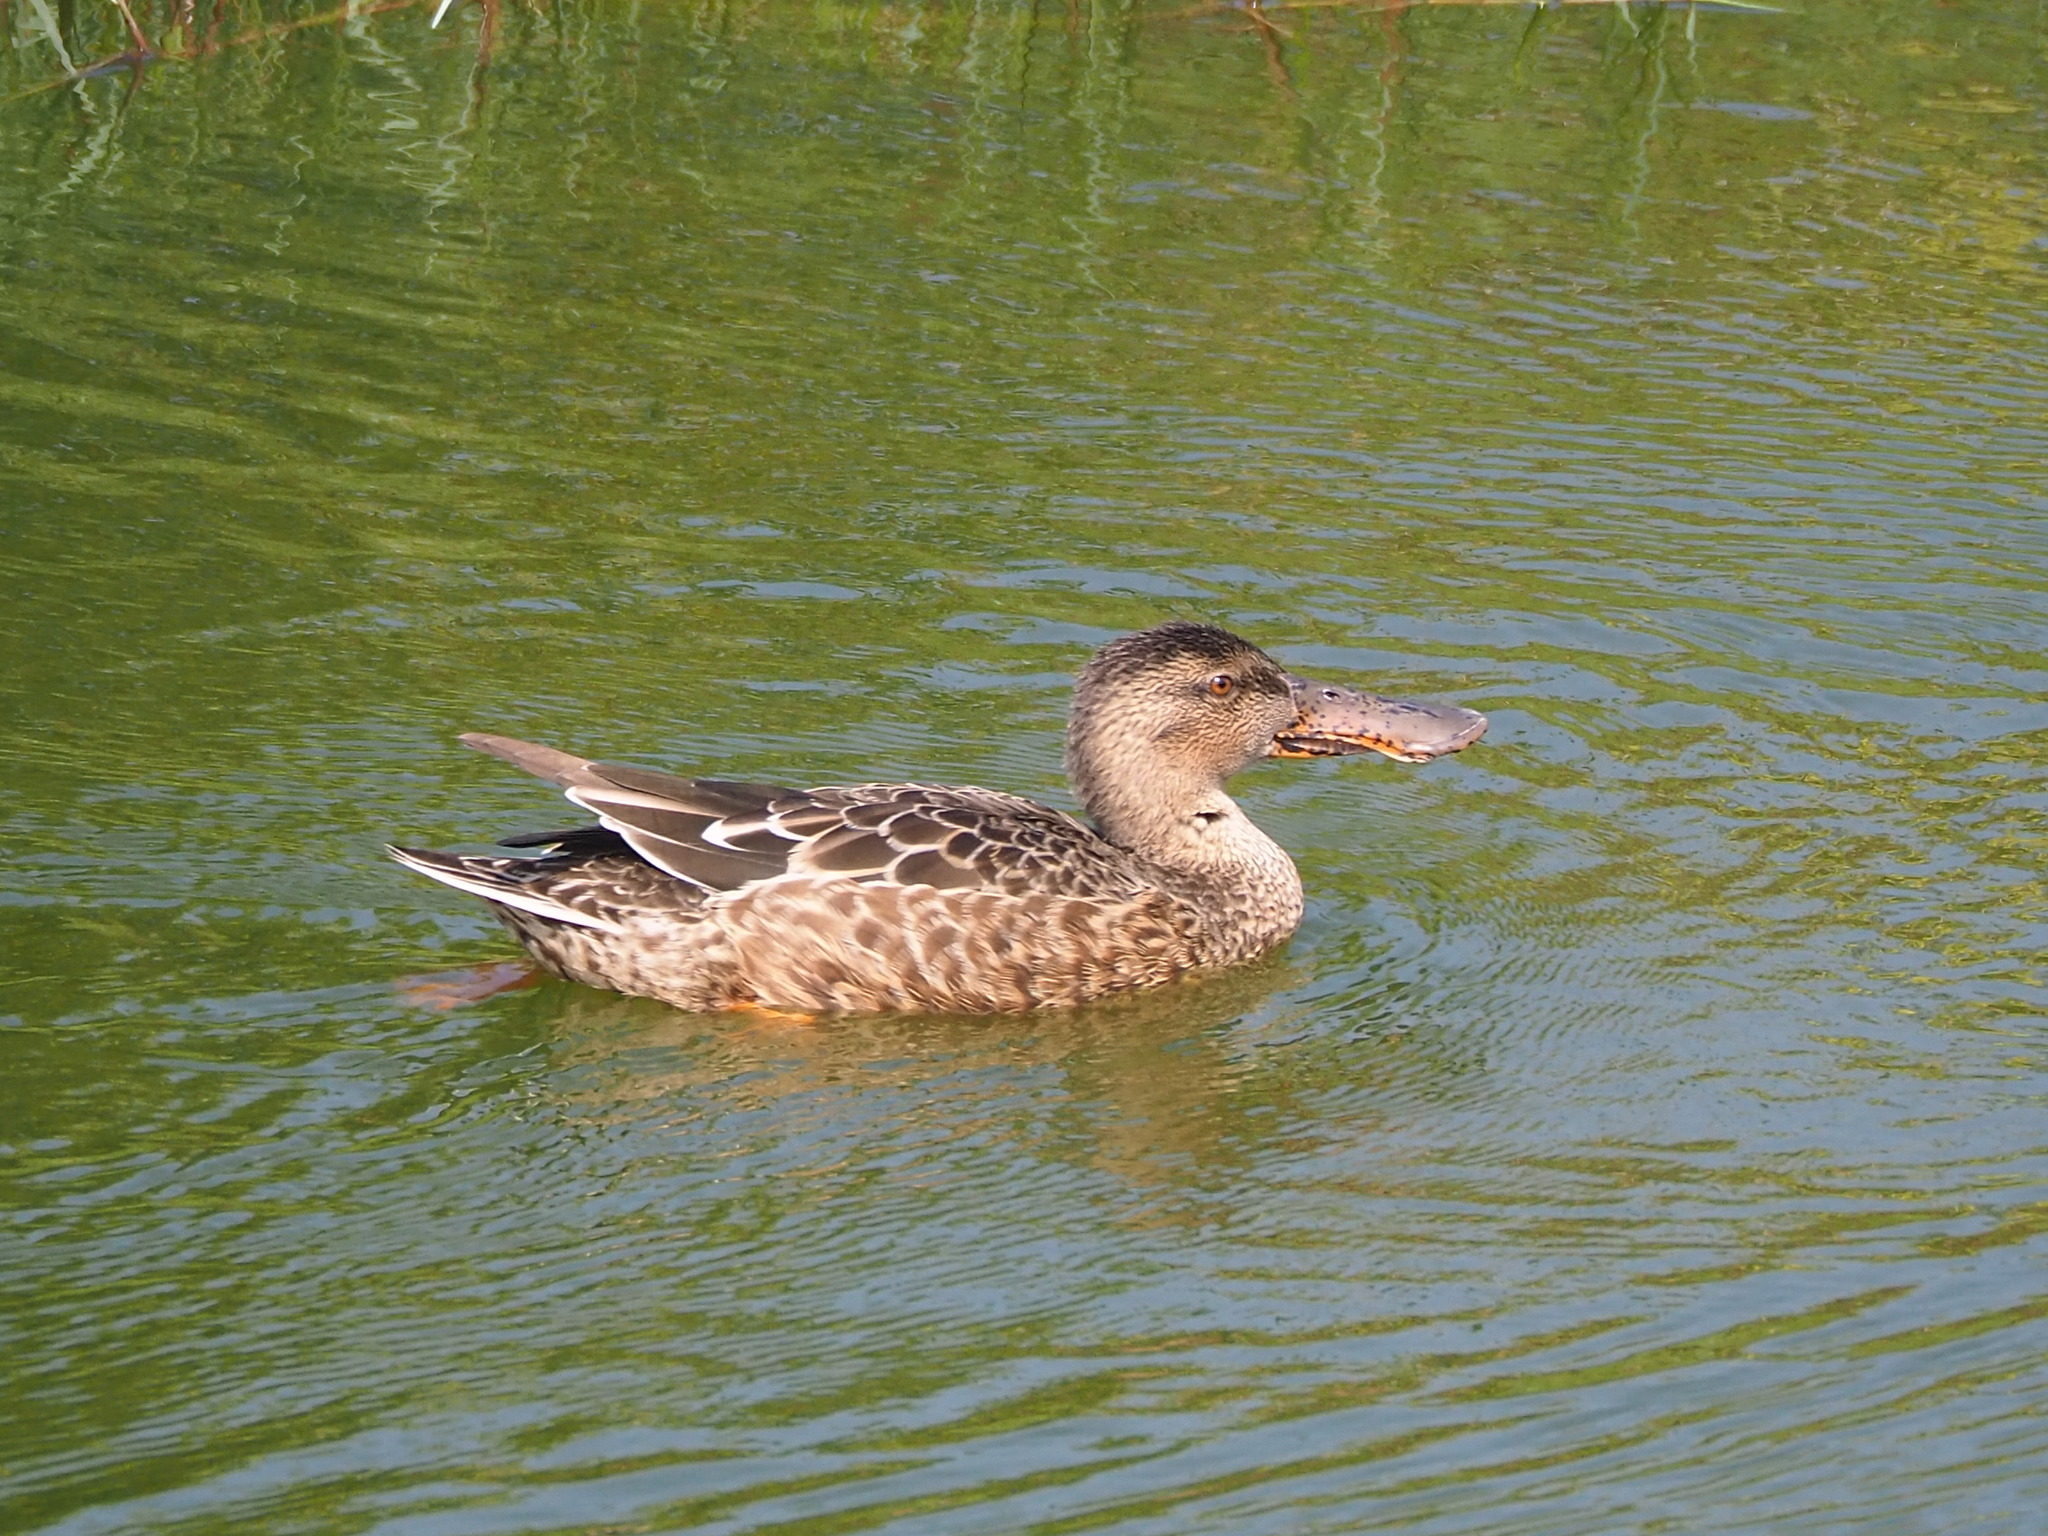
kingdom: Animalia
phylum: Chordata
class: Aves
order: Anseriformes
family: Anatidae
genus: Spatula
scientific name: Spatula clypeata
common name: Northern shoveler
